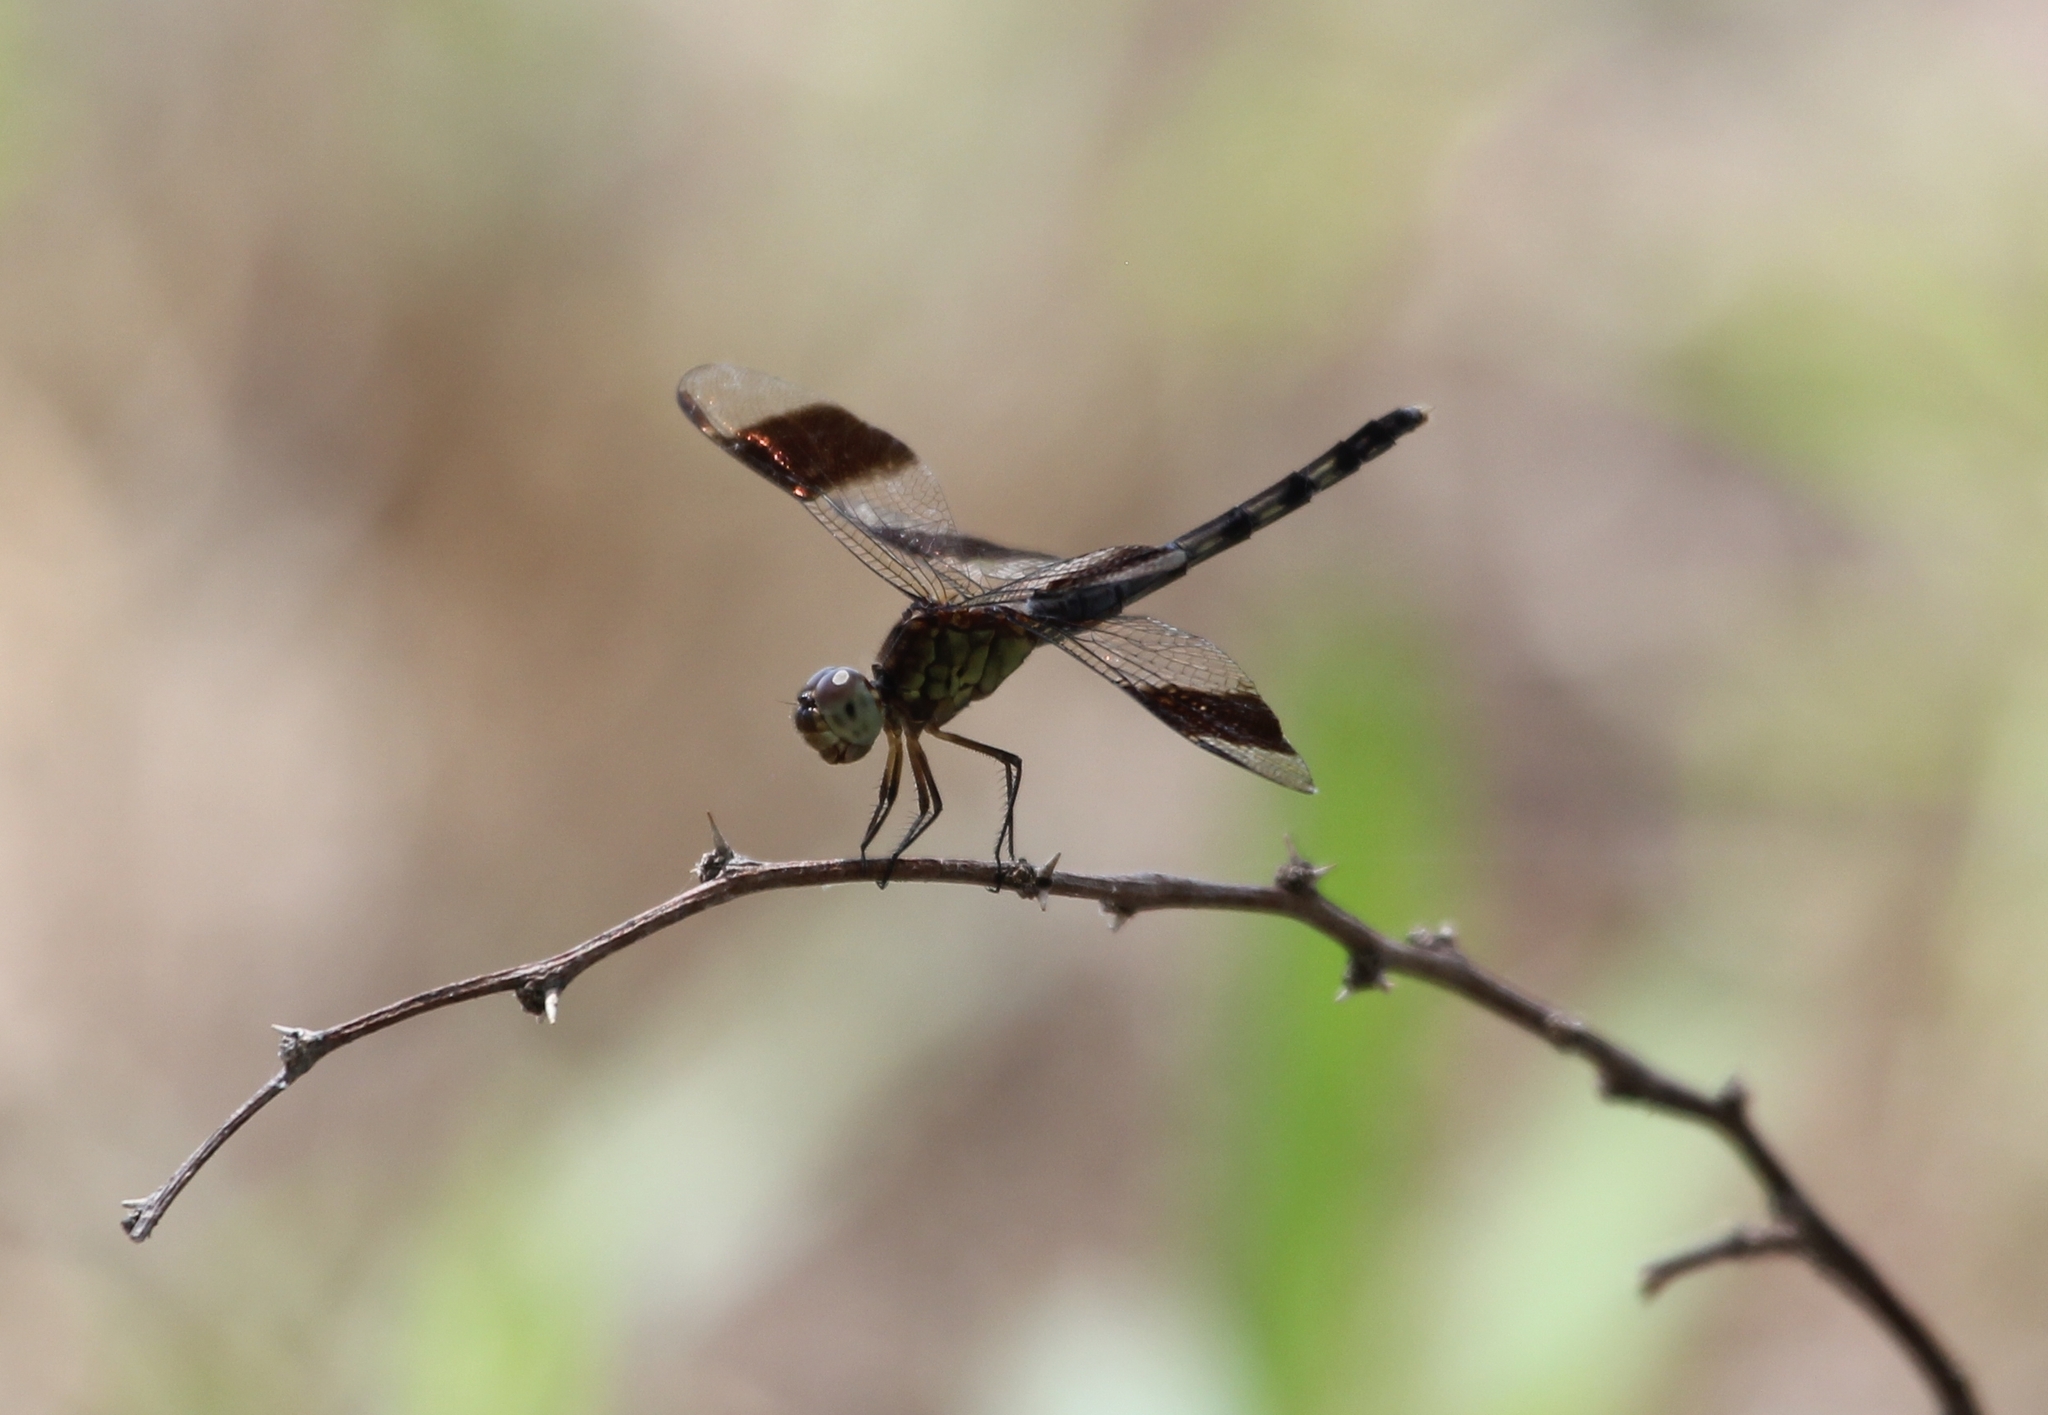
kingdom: Animalia
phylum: Arthropoda
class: Insecta
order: Odonata
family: Libellulidae
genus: Erythrodiplax
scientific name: Erythrodiplax umbrata
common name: Band-winged dragonlet
